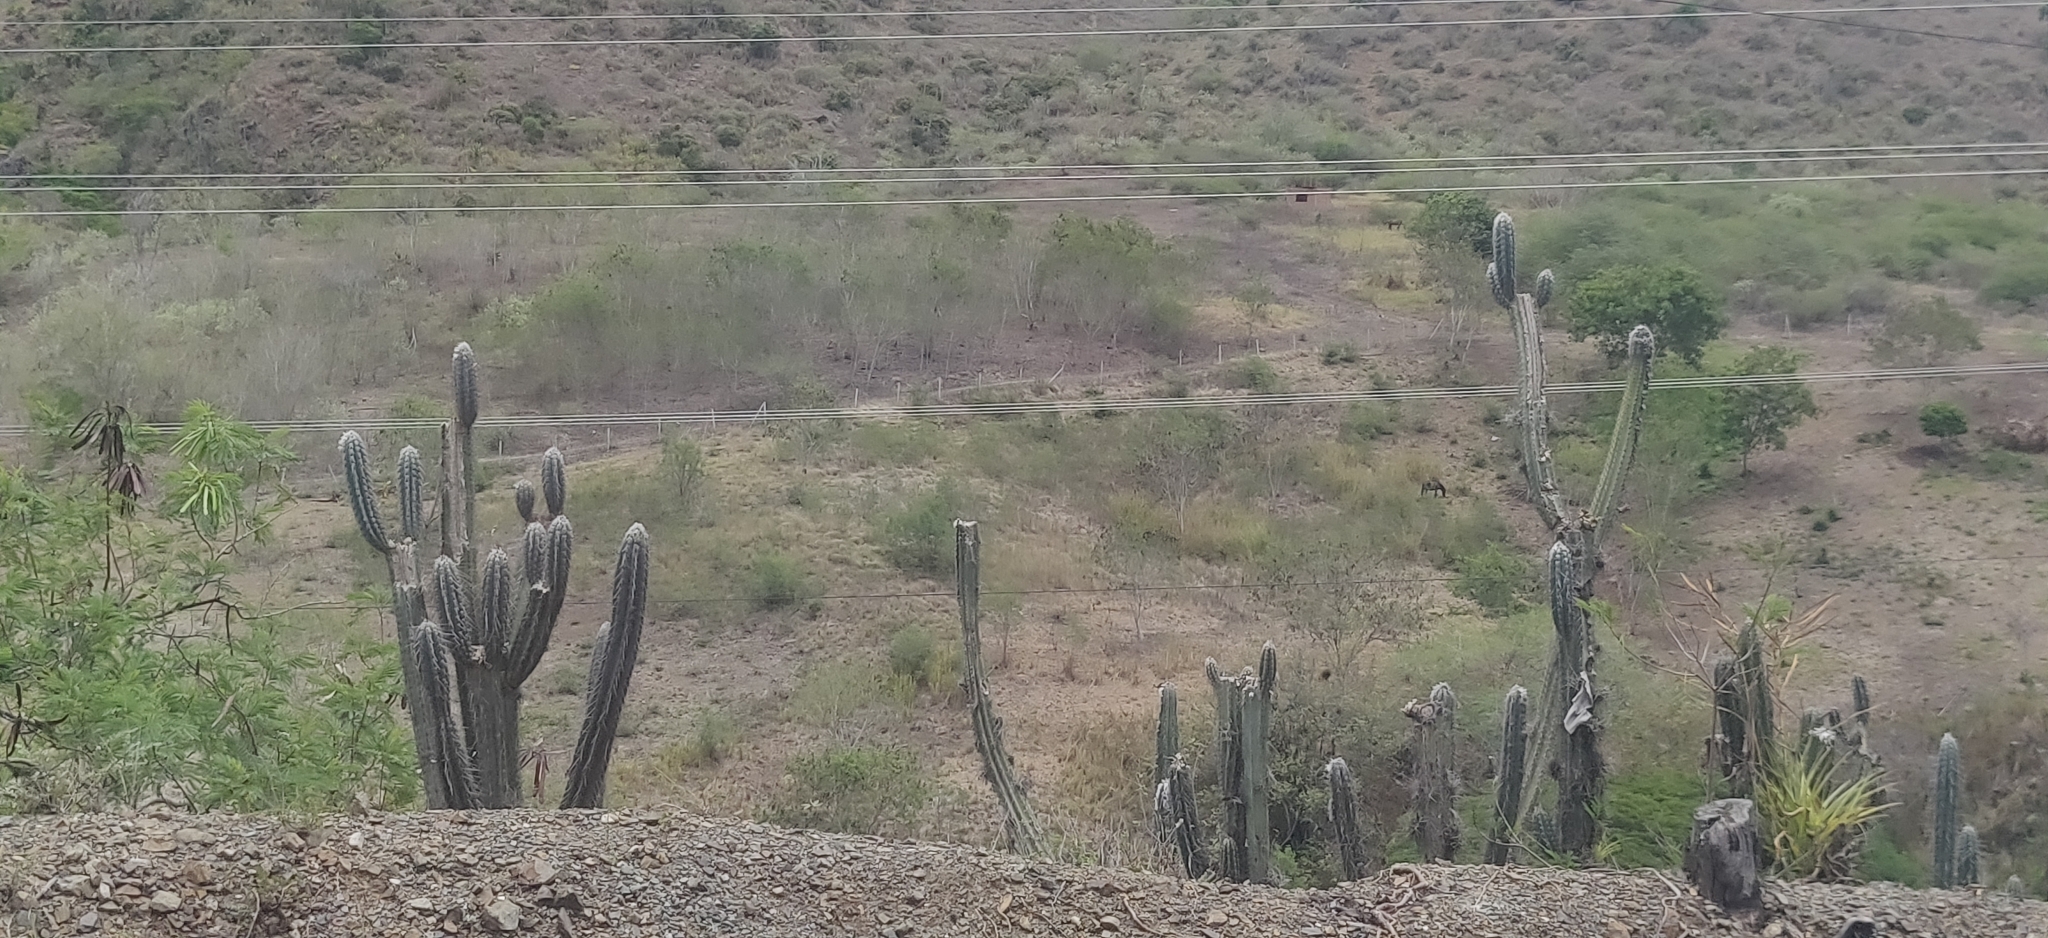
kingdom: Plantae
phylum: Tracheophyta
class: Magnoliopsida
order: Caryophyllales
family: Cactaceae
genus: Stenocereus
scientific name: Stenocereus griseus
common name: Tall candelabra cactus
